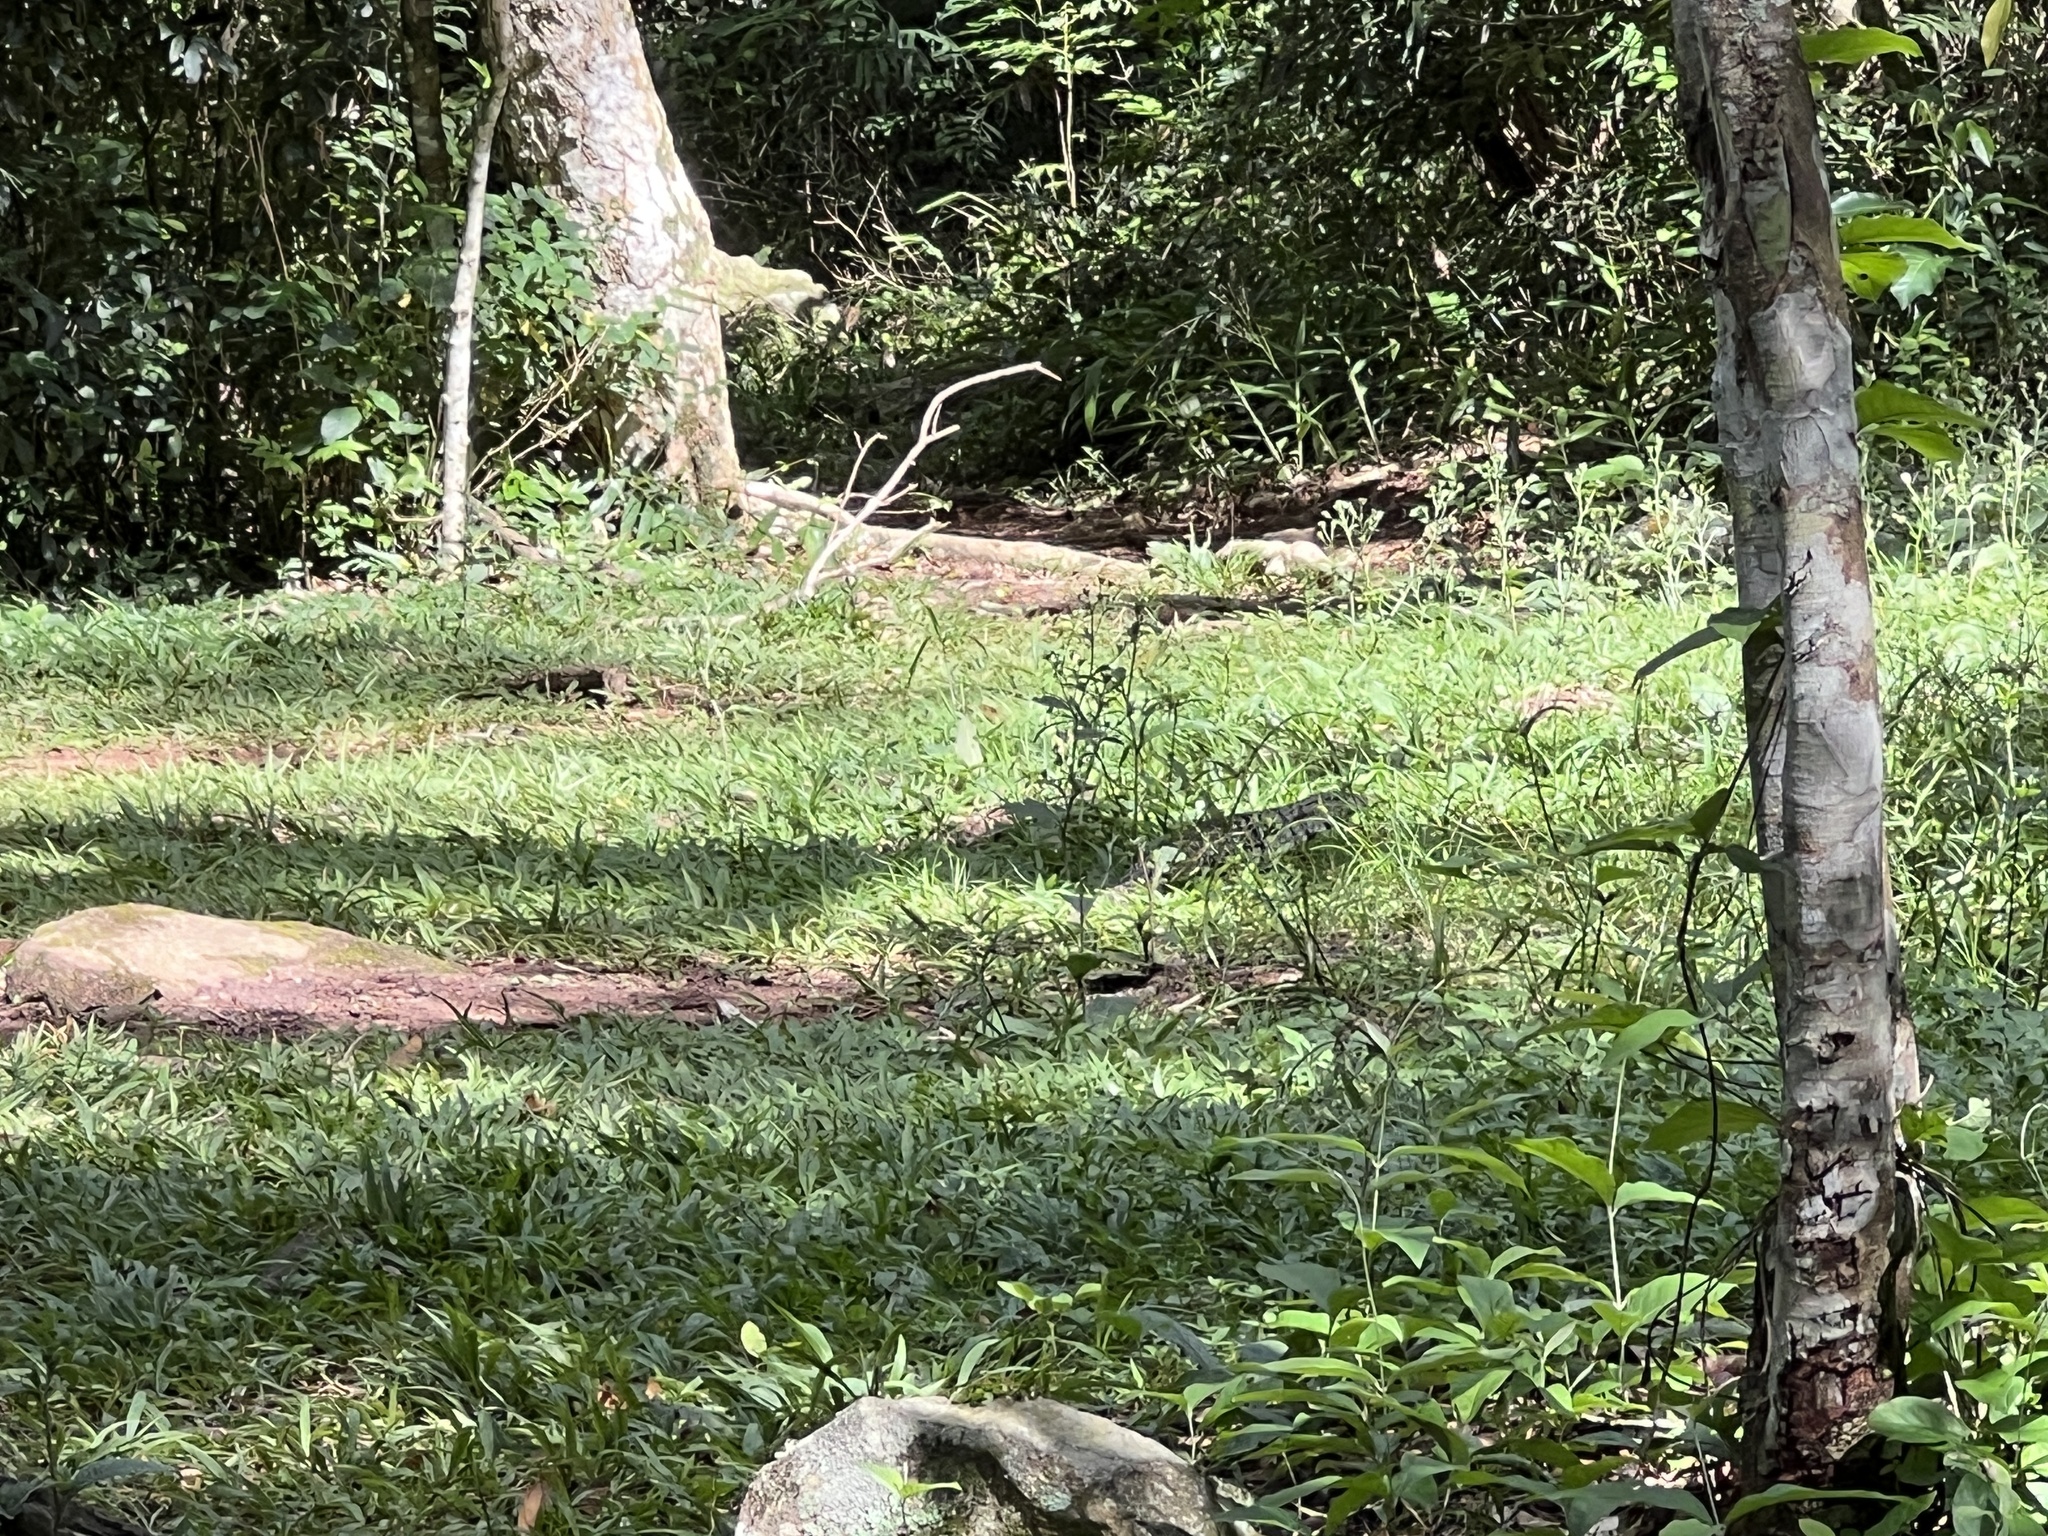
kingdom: Animalia
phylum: Chordata
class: Squamata
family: Teiidae
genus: Salvator
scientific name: Salvator merianae
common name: Argentine black and white tegu
